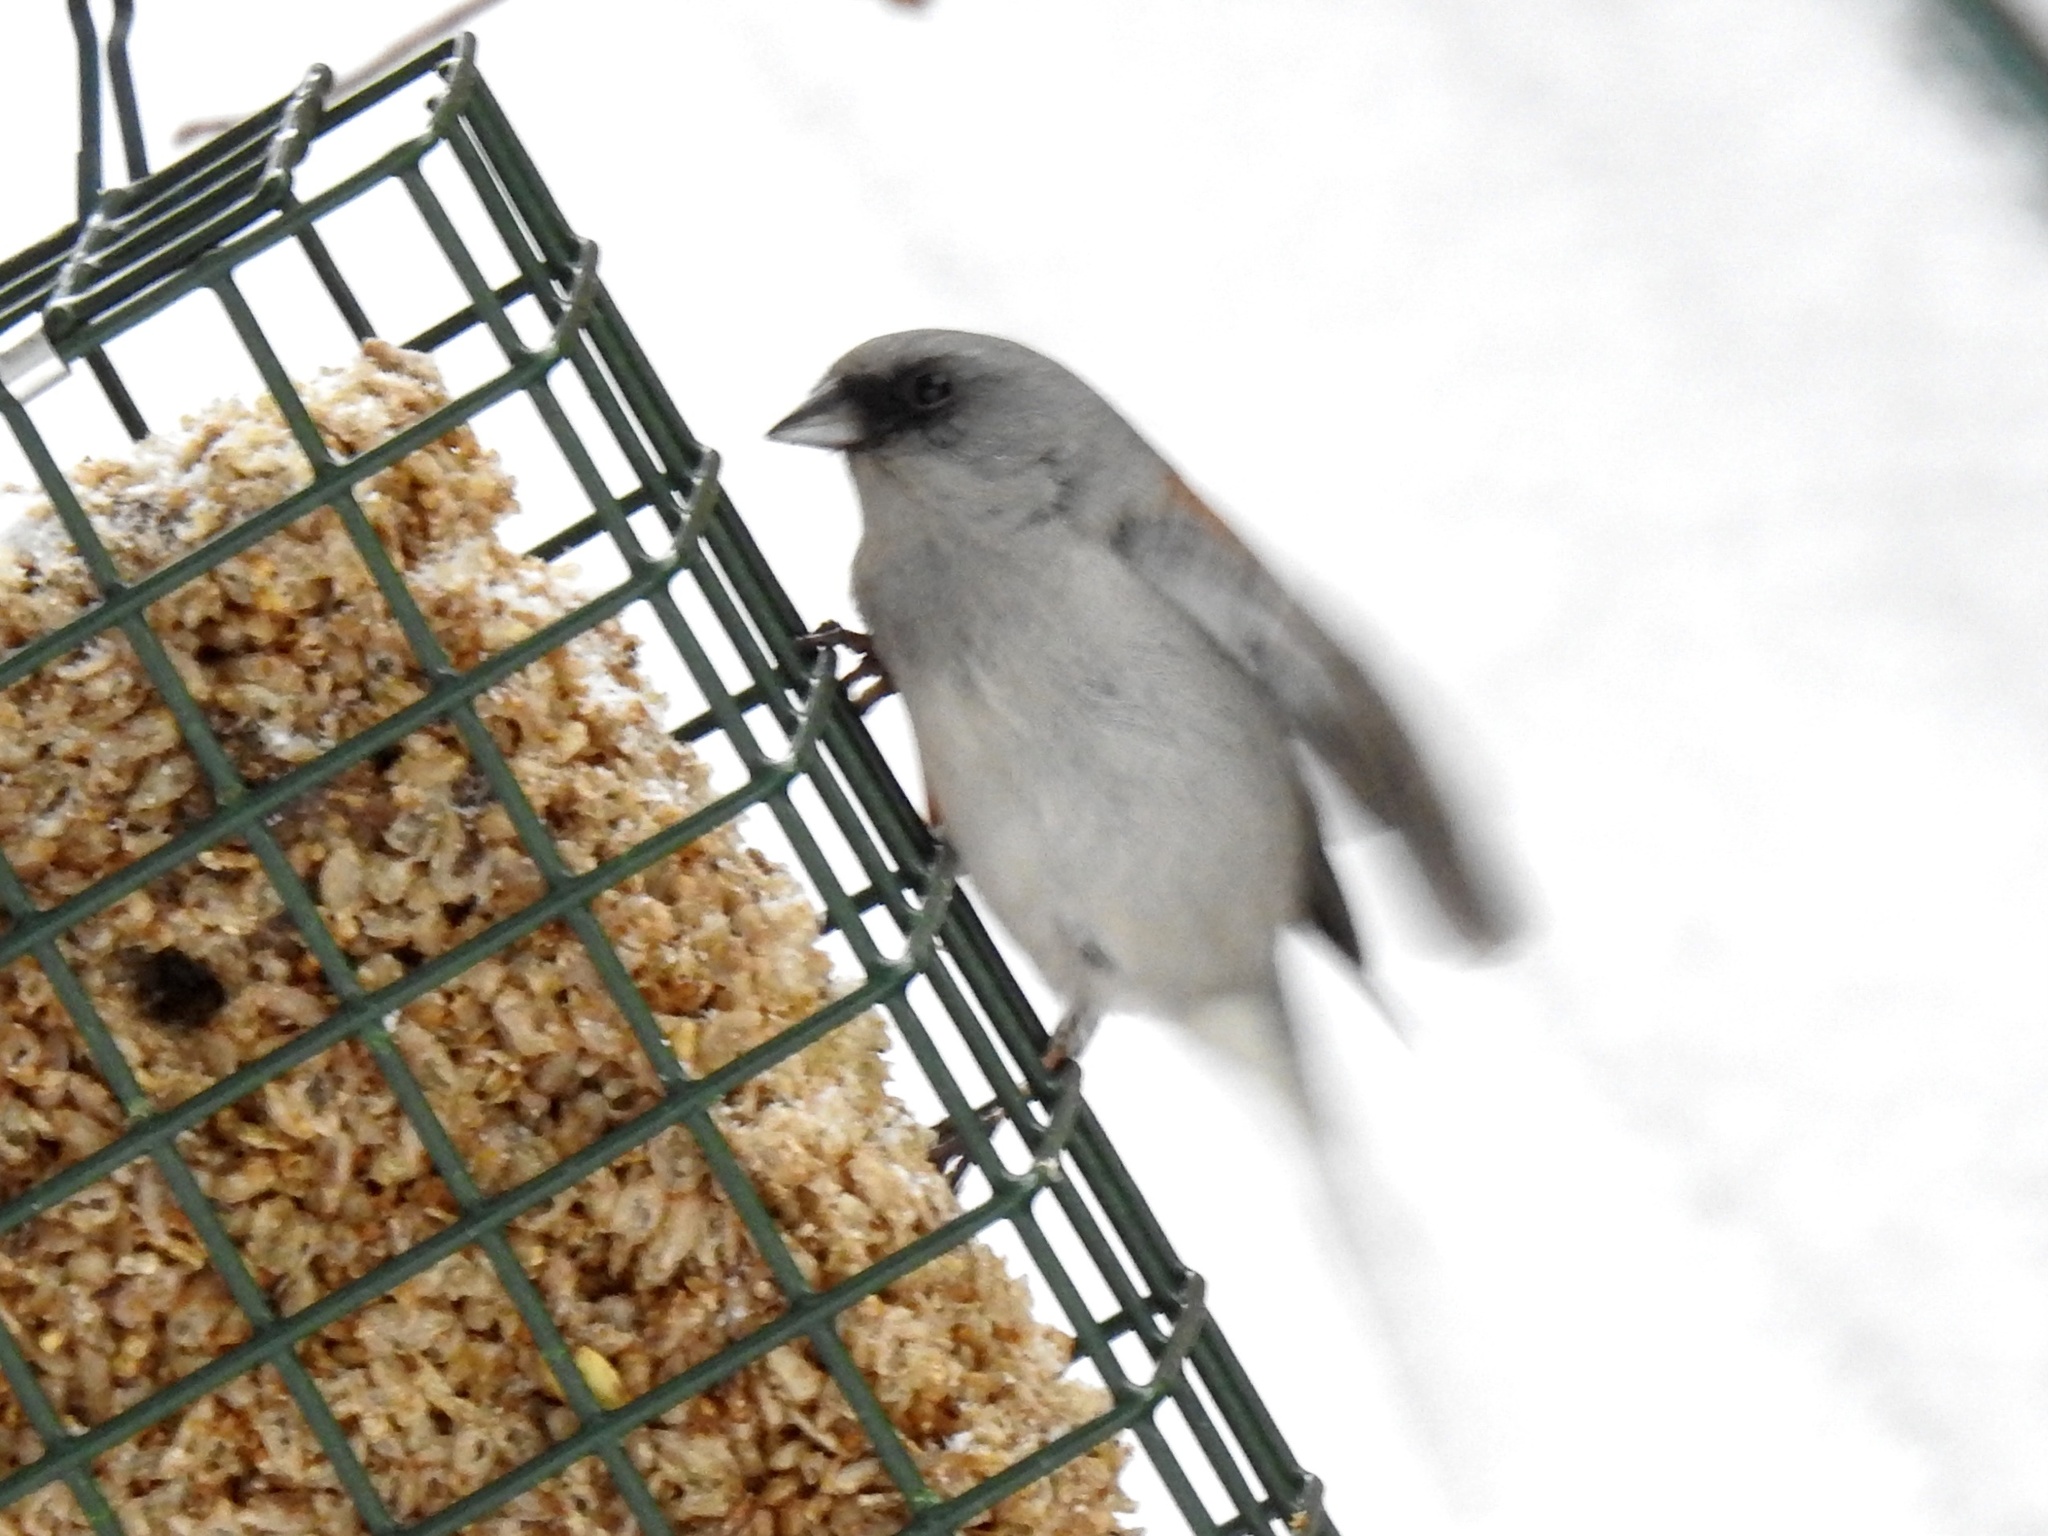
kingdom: Animalia
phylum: Chordata
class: Aves
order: Passeriformes
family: Passerellidae
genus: Junco
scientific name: Junco hyemalis
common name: Dark-eyed junco
